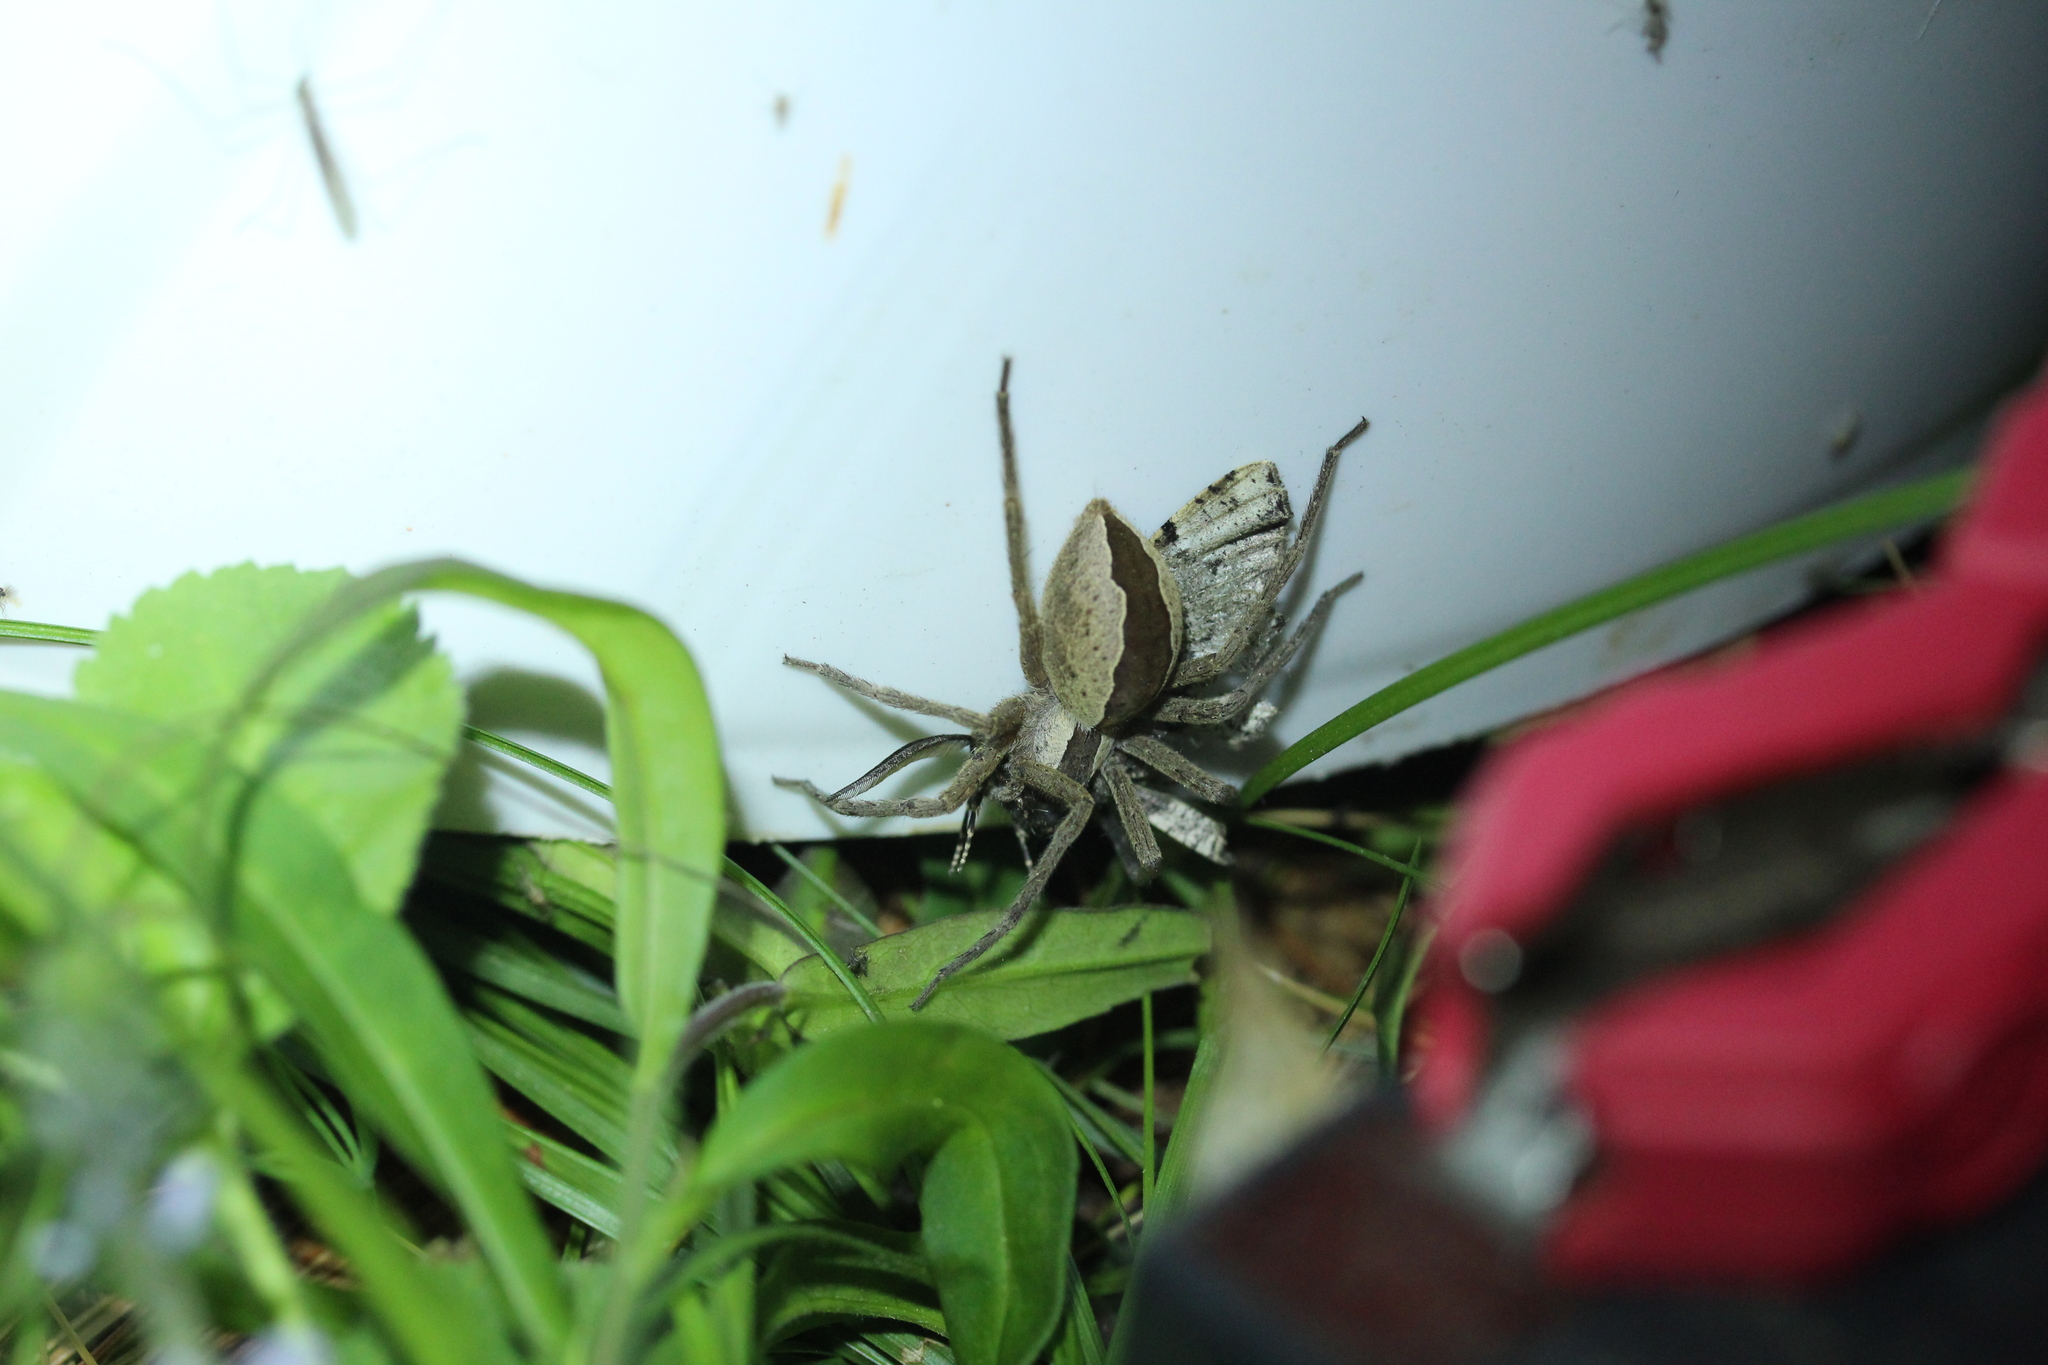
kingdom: Animalia
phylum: Arthropoda
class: Arachnida
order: Araneae
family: Pisauridae
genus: Pisaurina
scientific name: Pisaurina mira
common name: American nursery web spider
